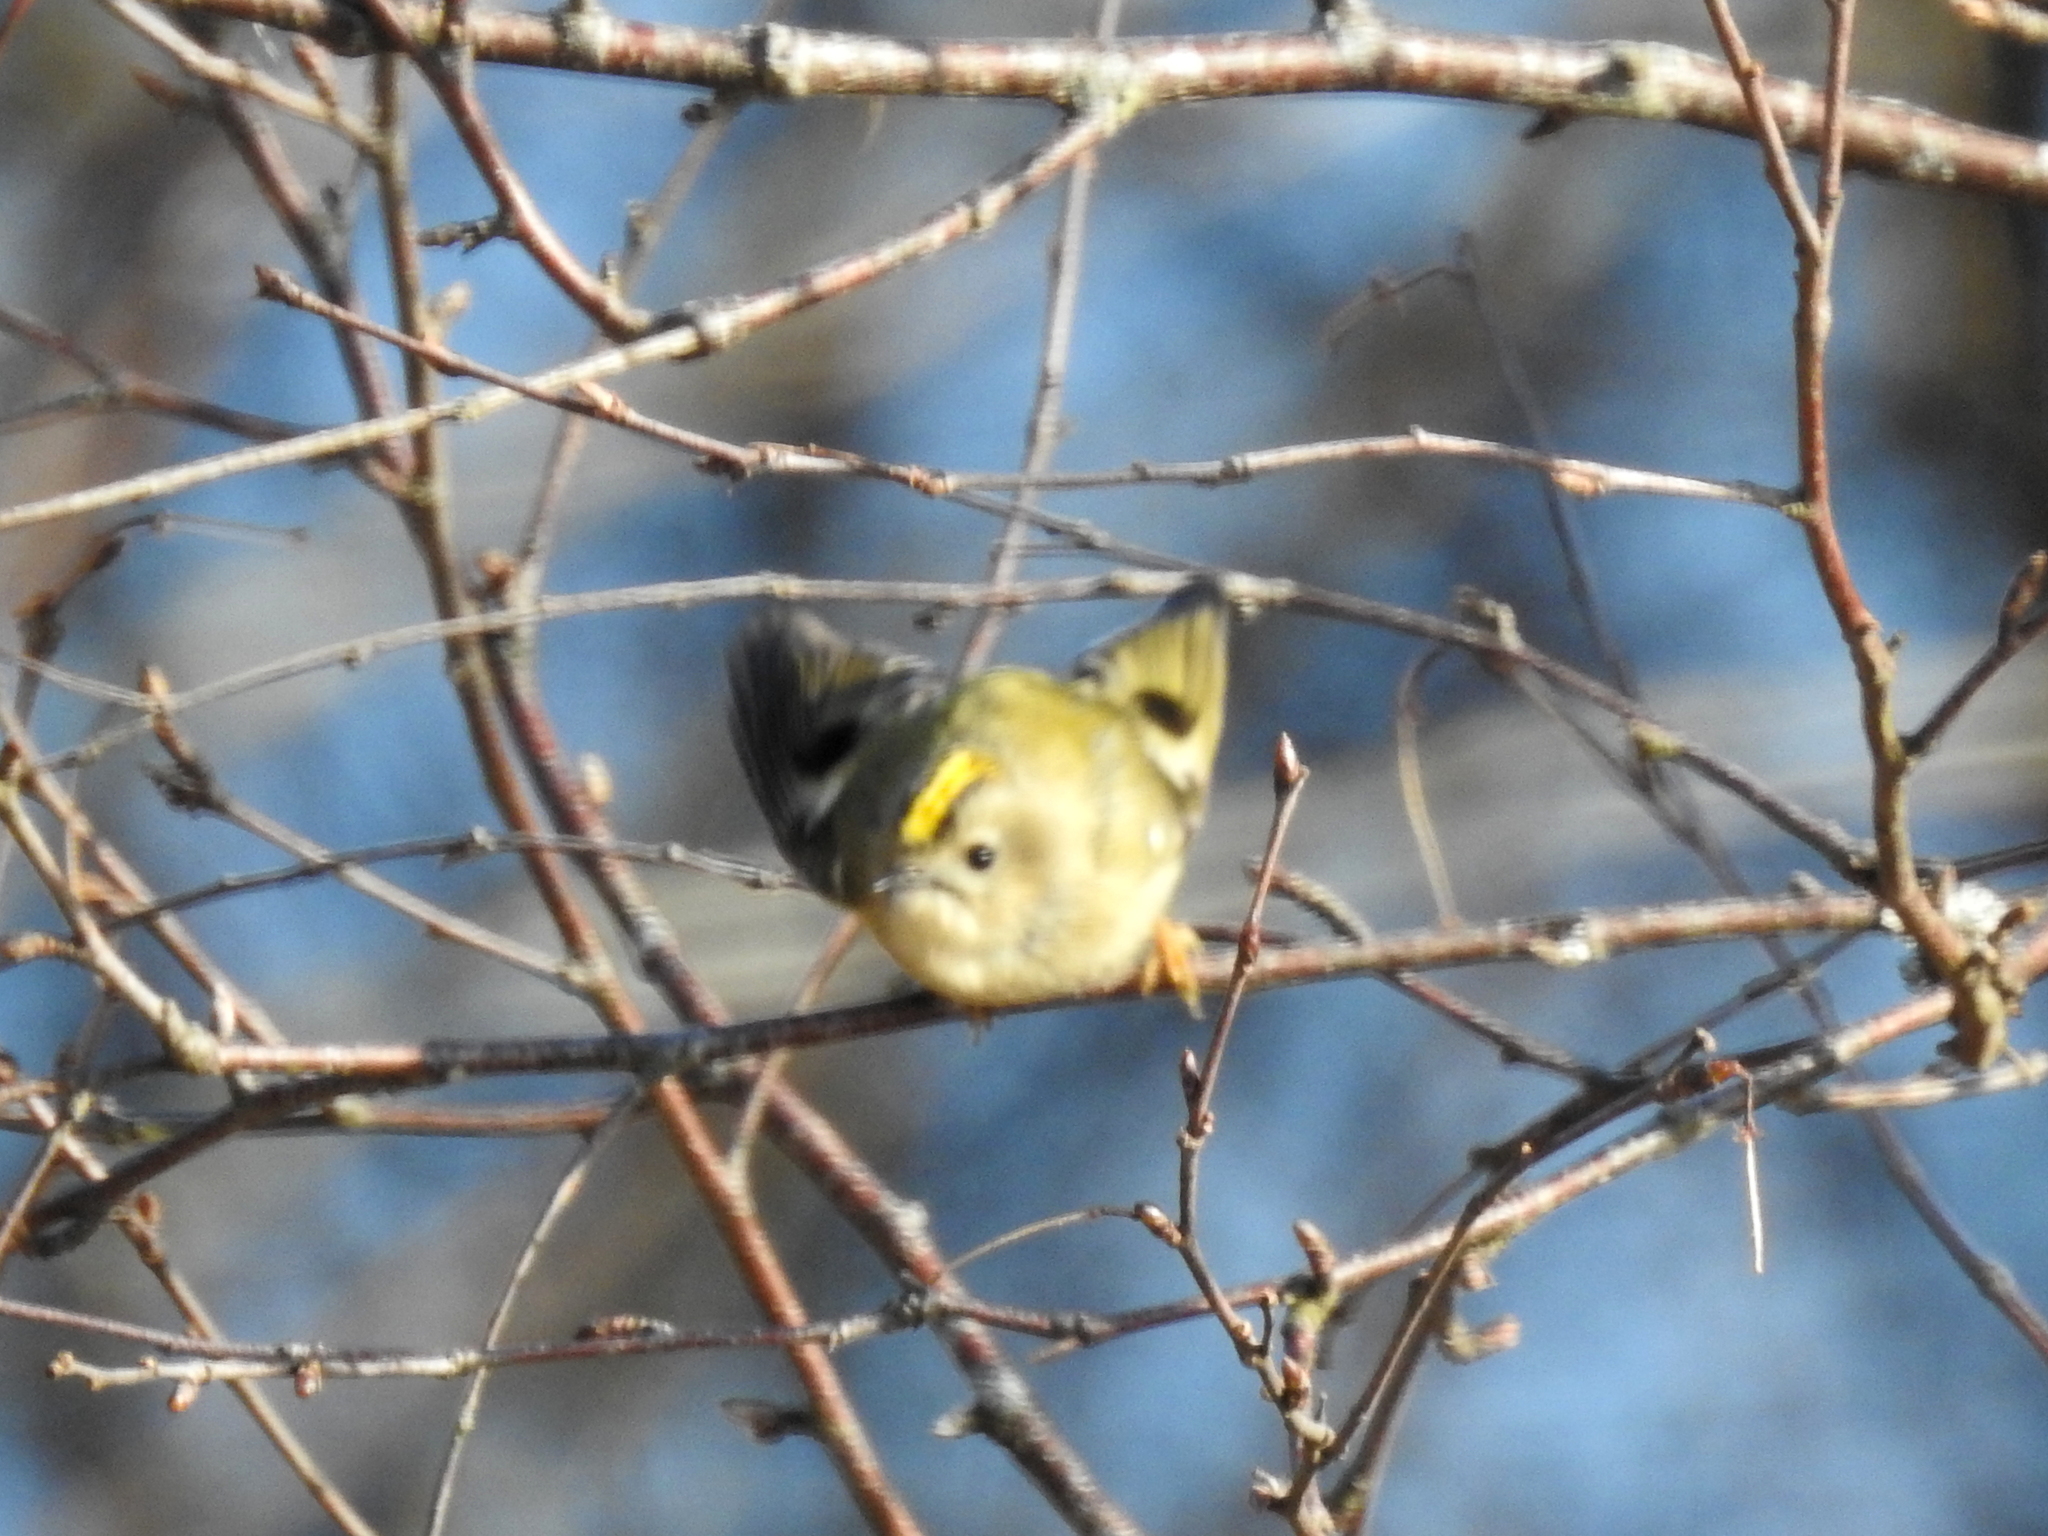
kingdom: Animalia
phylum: Chordata
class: Aves
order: Passeriformes
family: Regulidae
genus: Regulus
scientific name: Regulus regulus
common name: Goldcrest
